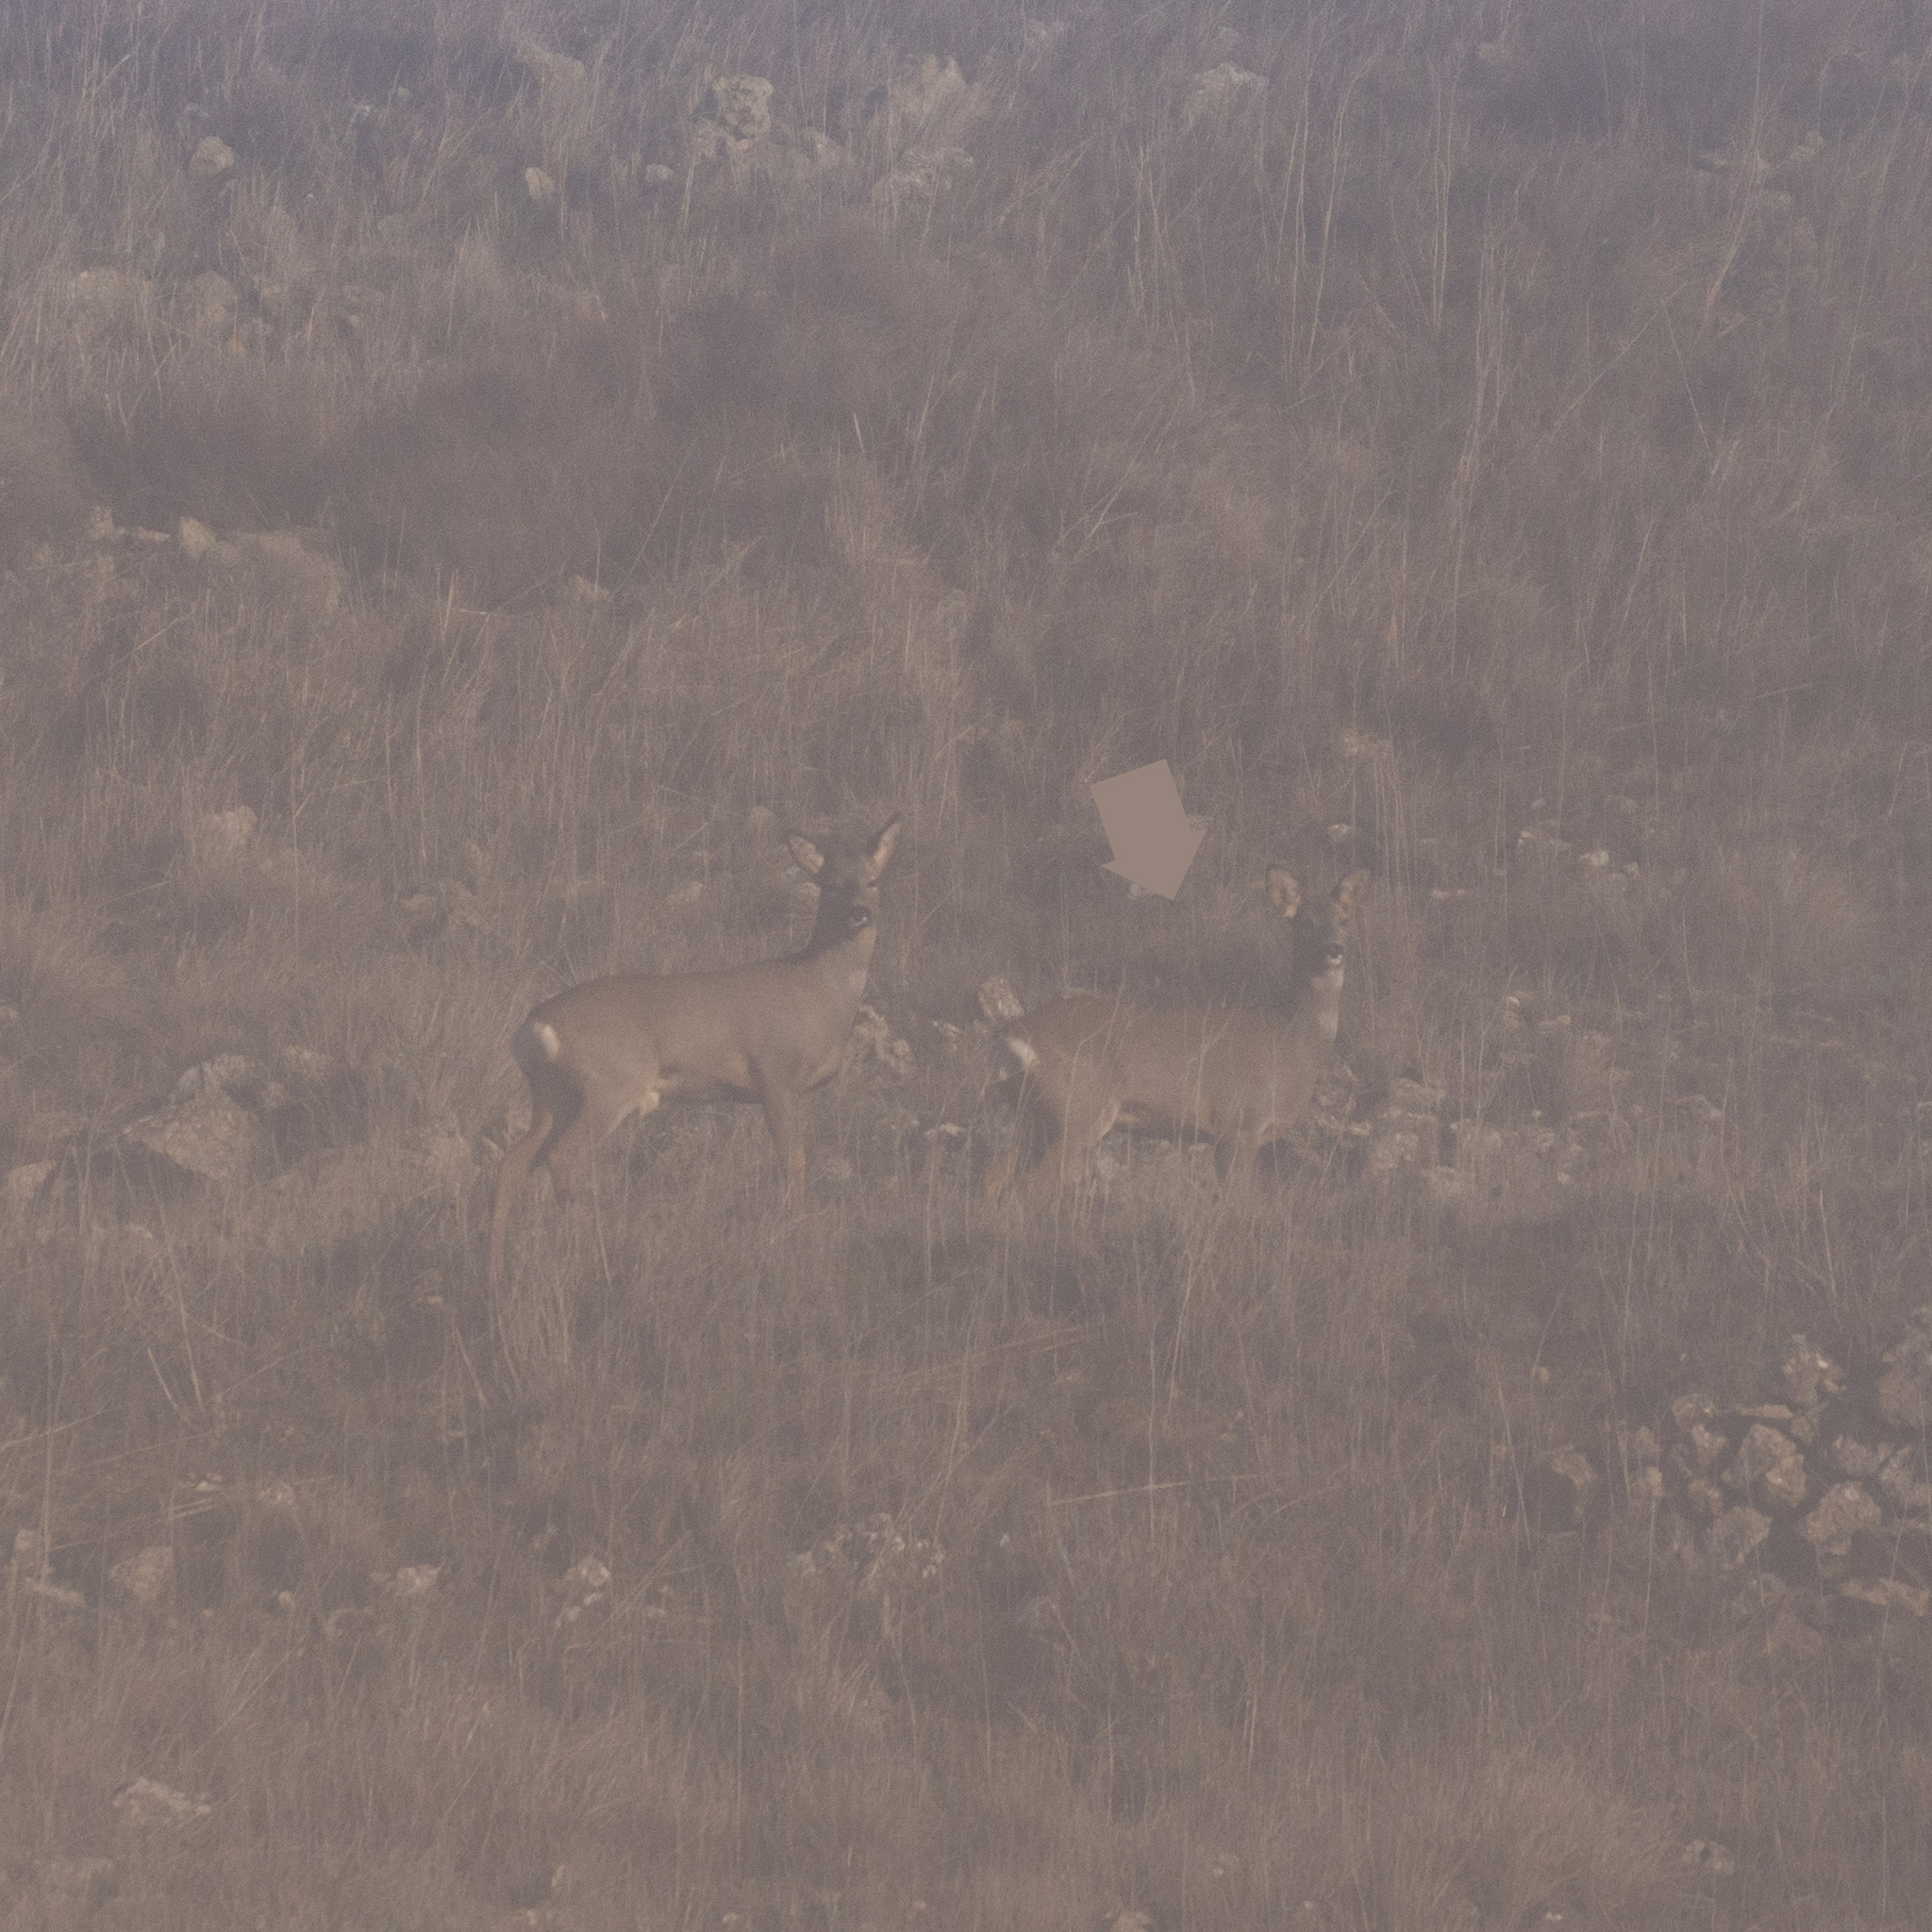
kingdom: Animalia
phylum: Chordata
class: Mammalia
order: Artiodactyla
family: Cervidae
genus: Capreolus
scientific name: Capreolus capreolus
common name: Western roe deer
